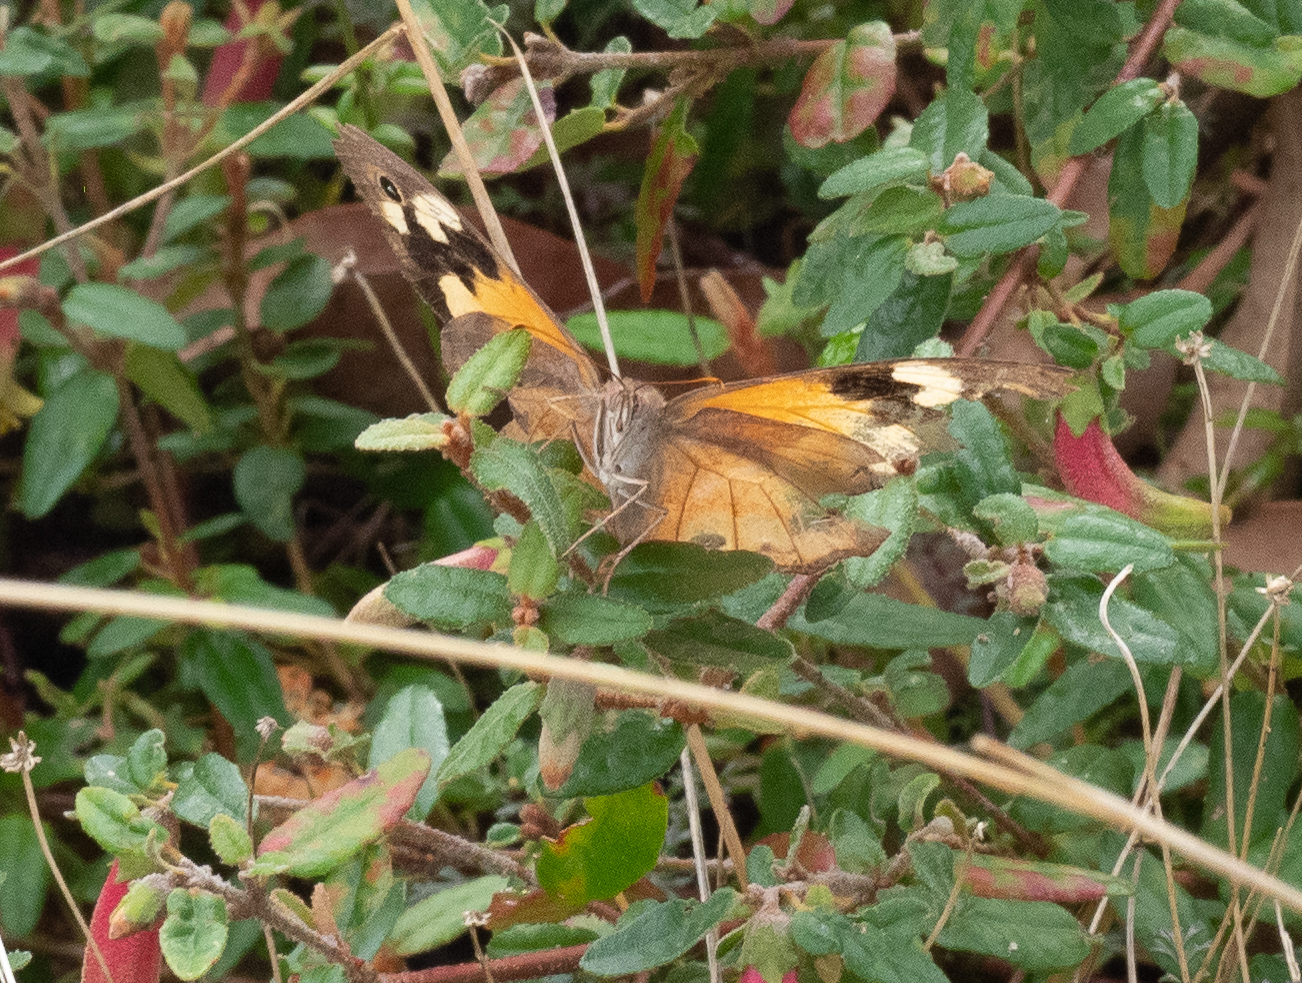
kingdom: Animalia
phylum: Arthropoda
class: Insecta
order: Lepidoptera
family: Nymphalidae
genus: Heteronympha
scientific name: Heteronympha merope
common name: Common brown
